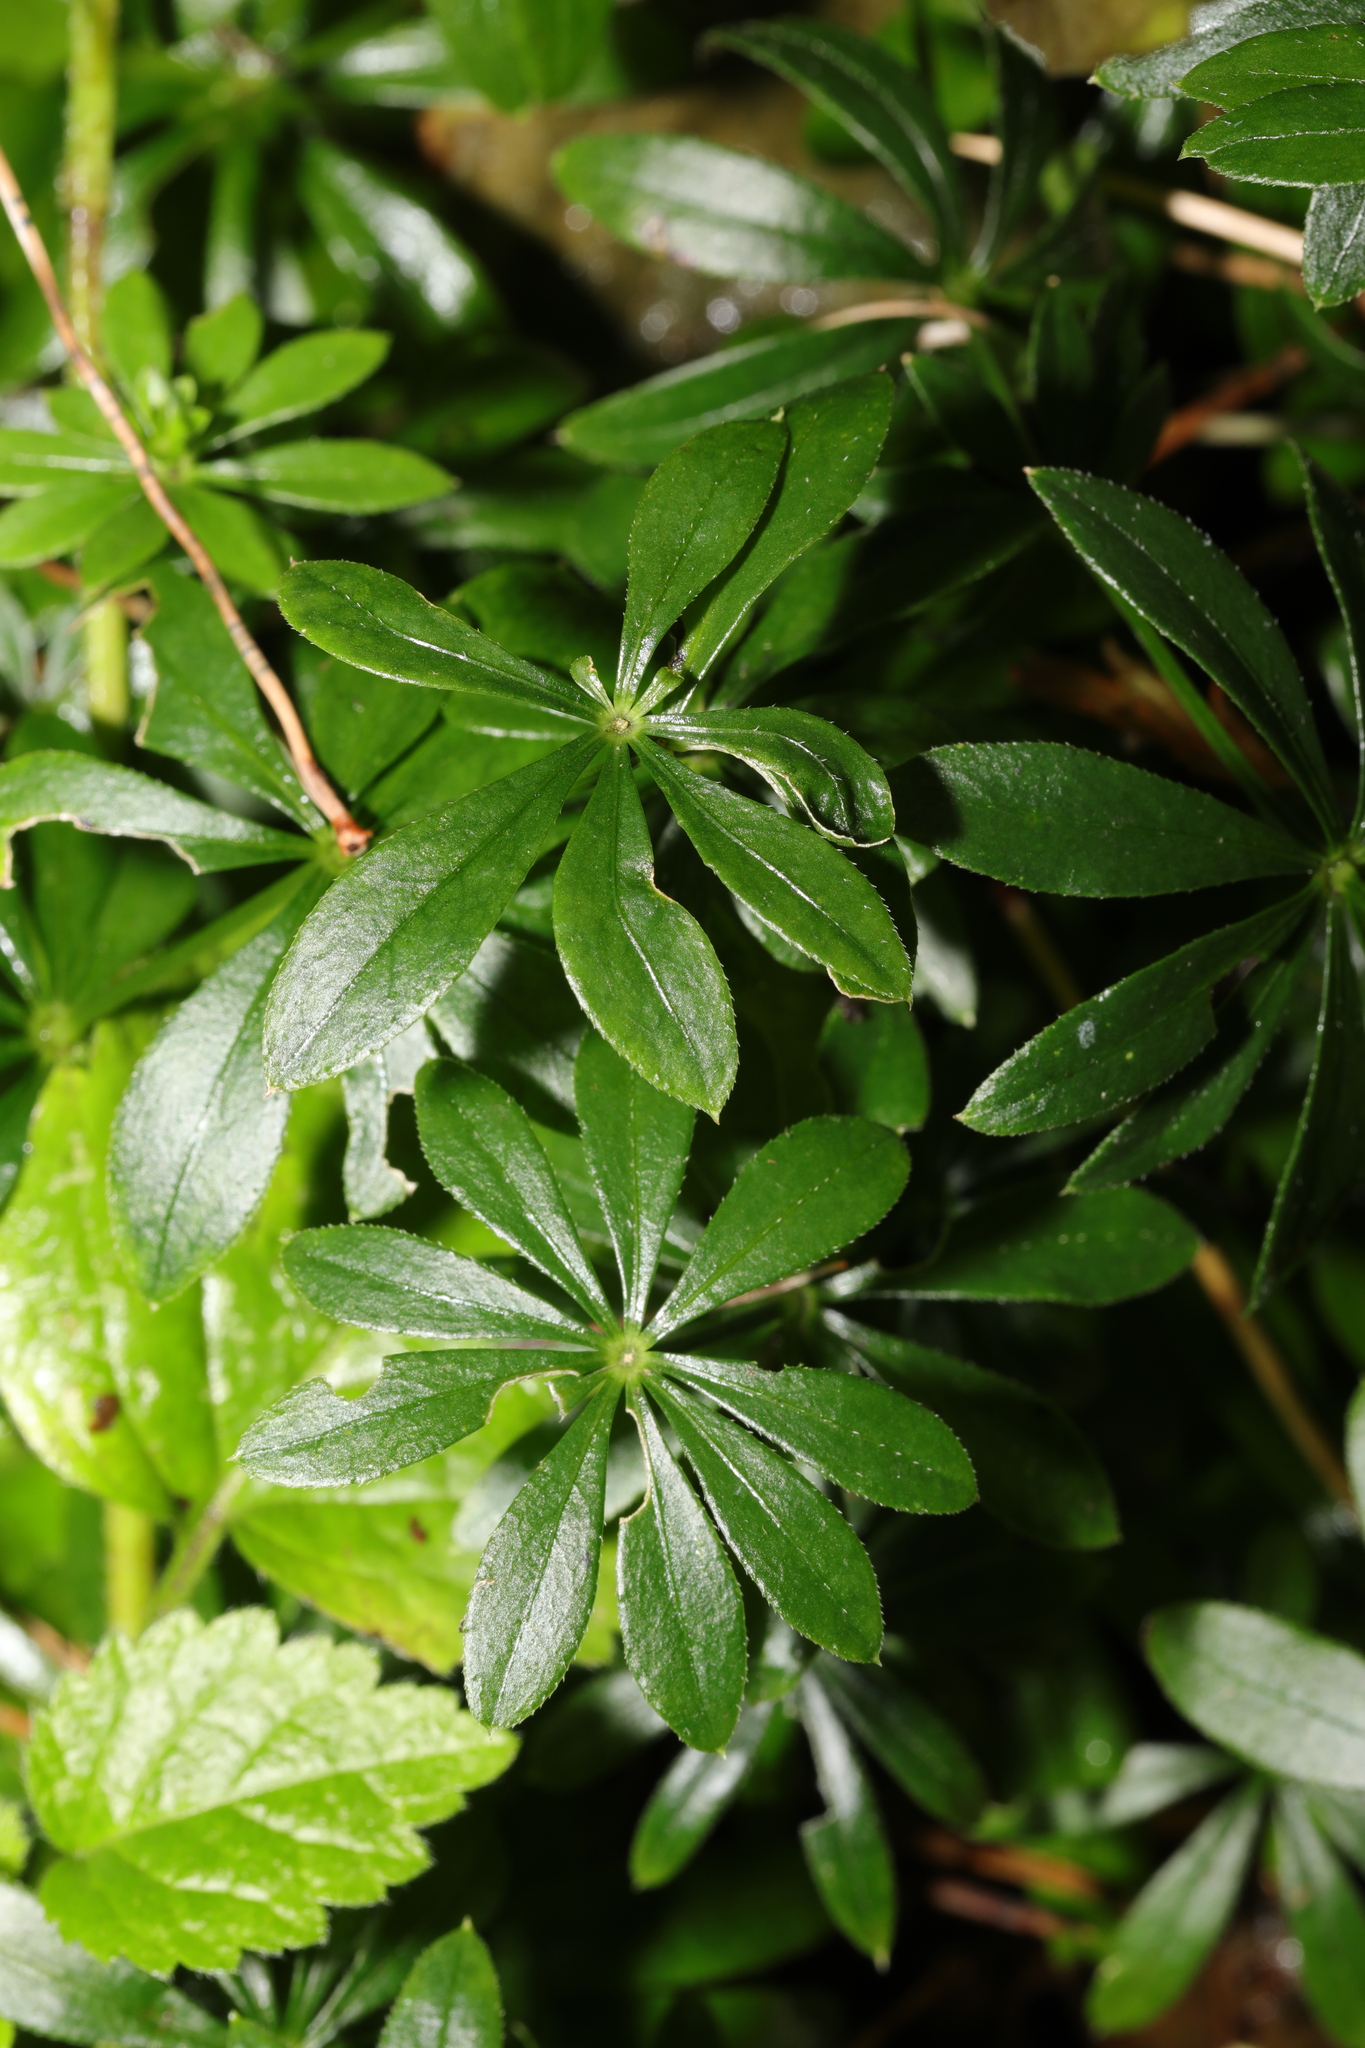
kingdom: Plantae
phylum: Tracheophyta
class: Magnoliopsida
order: Gentianales
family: Rubiaceae
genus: Galium
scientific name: Galium odoratum
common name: Sweet woodruff
